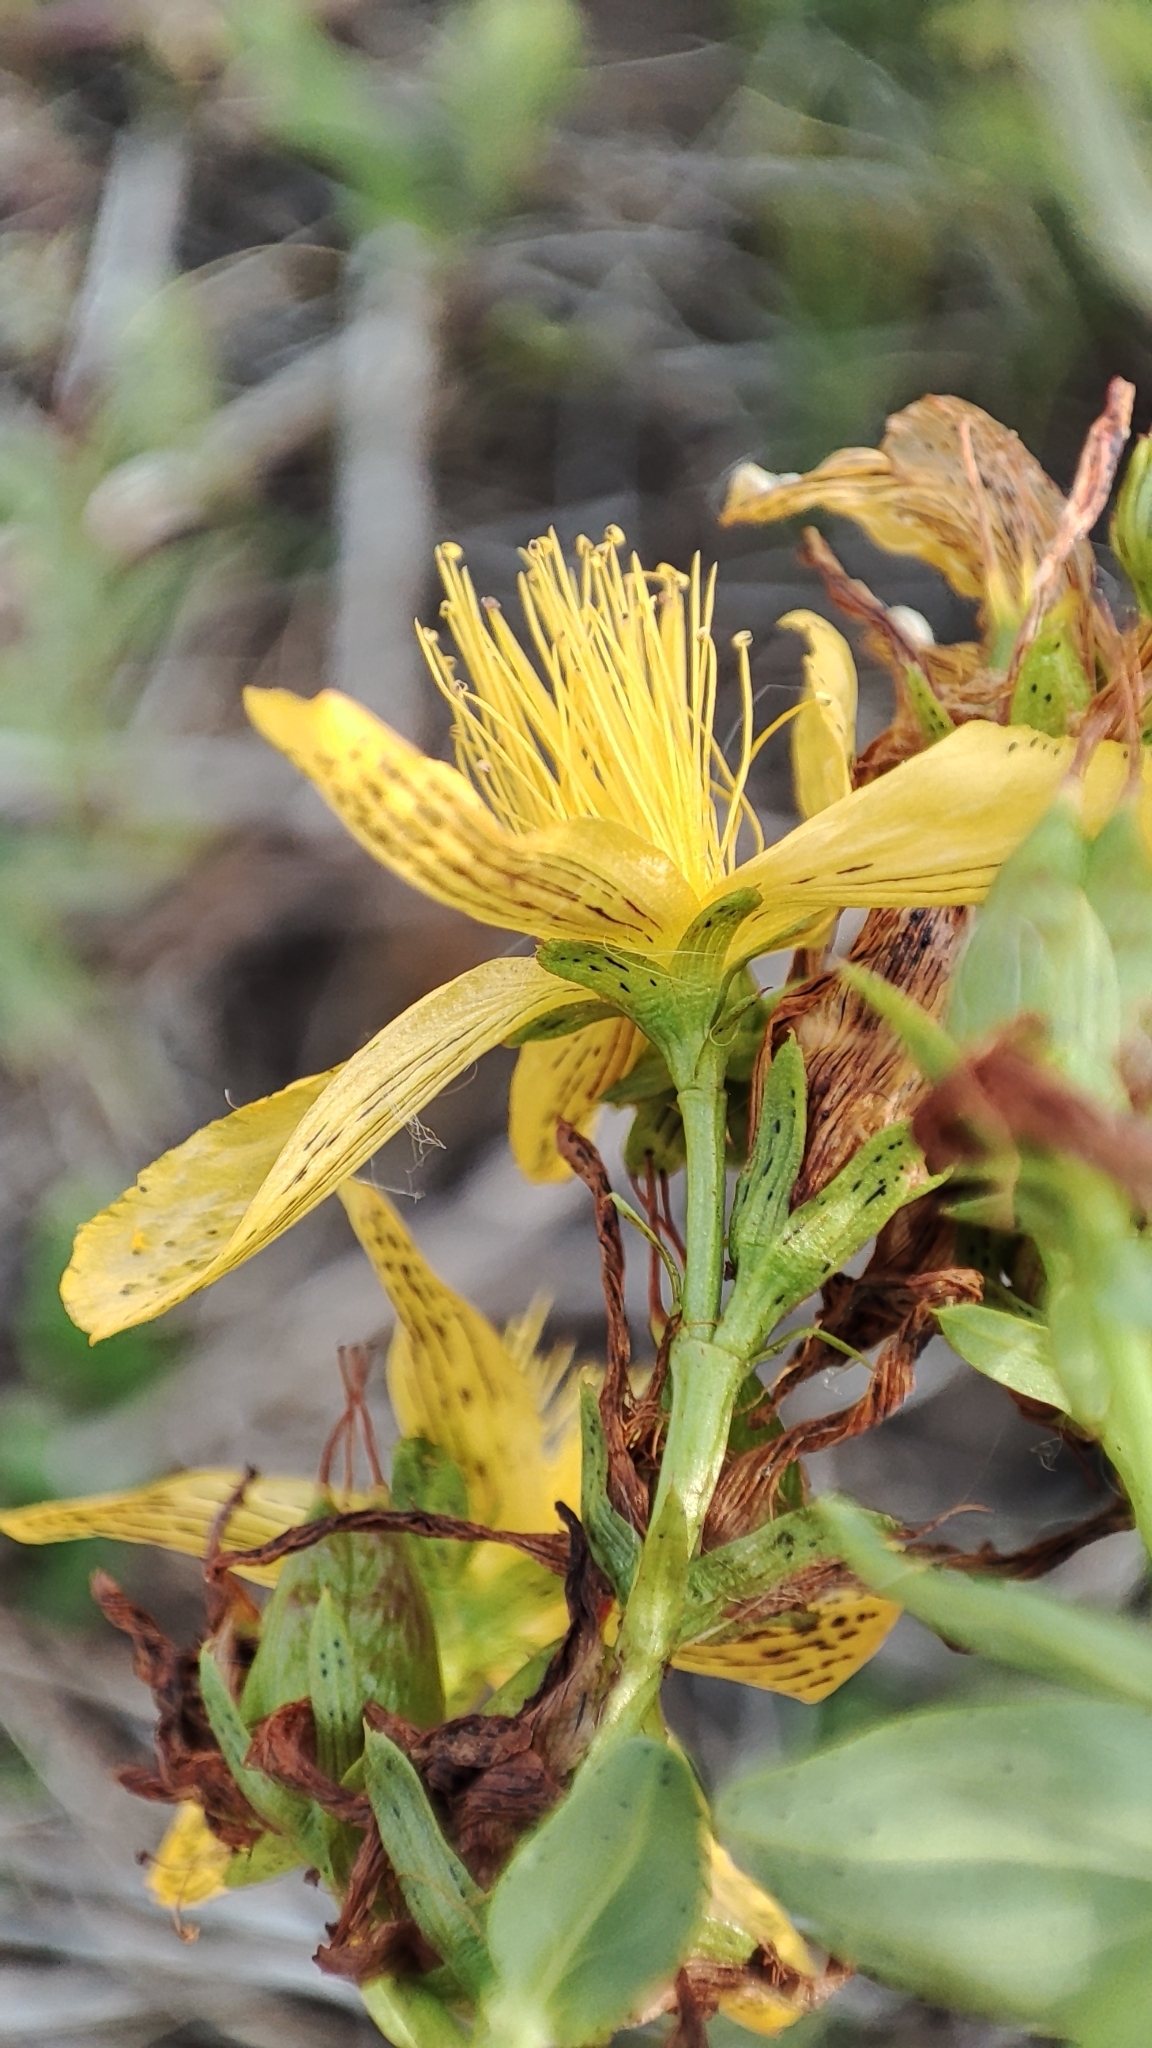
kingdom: Plantae
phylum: Tracheophyta
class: Magnoliopsida
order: Malpighiales
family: Hypericaceae
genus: Hypericum
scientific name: Hypericum perforatum
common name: Common st. johnswort
